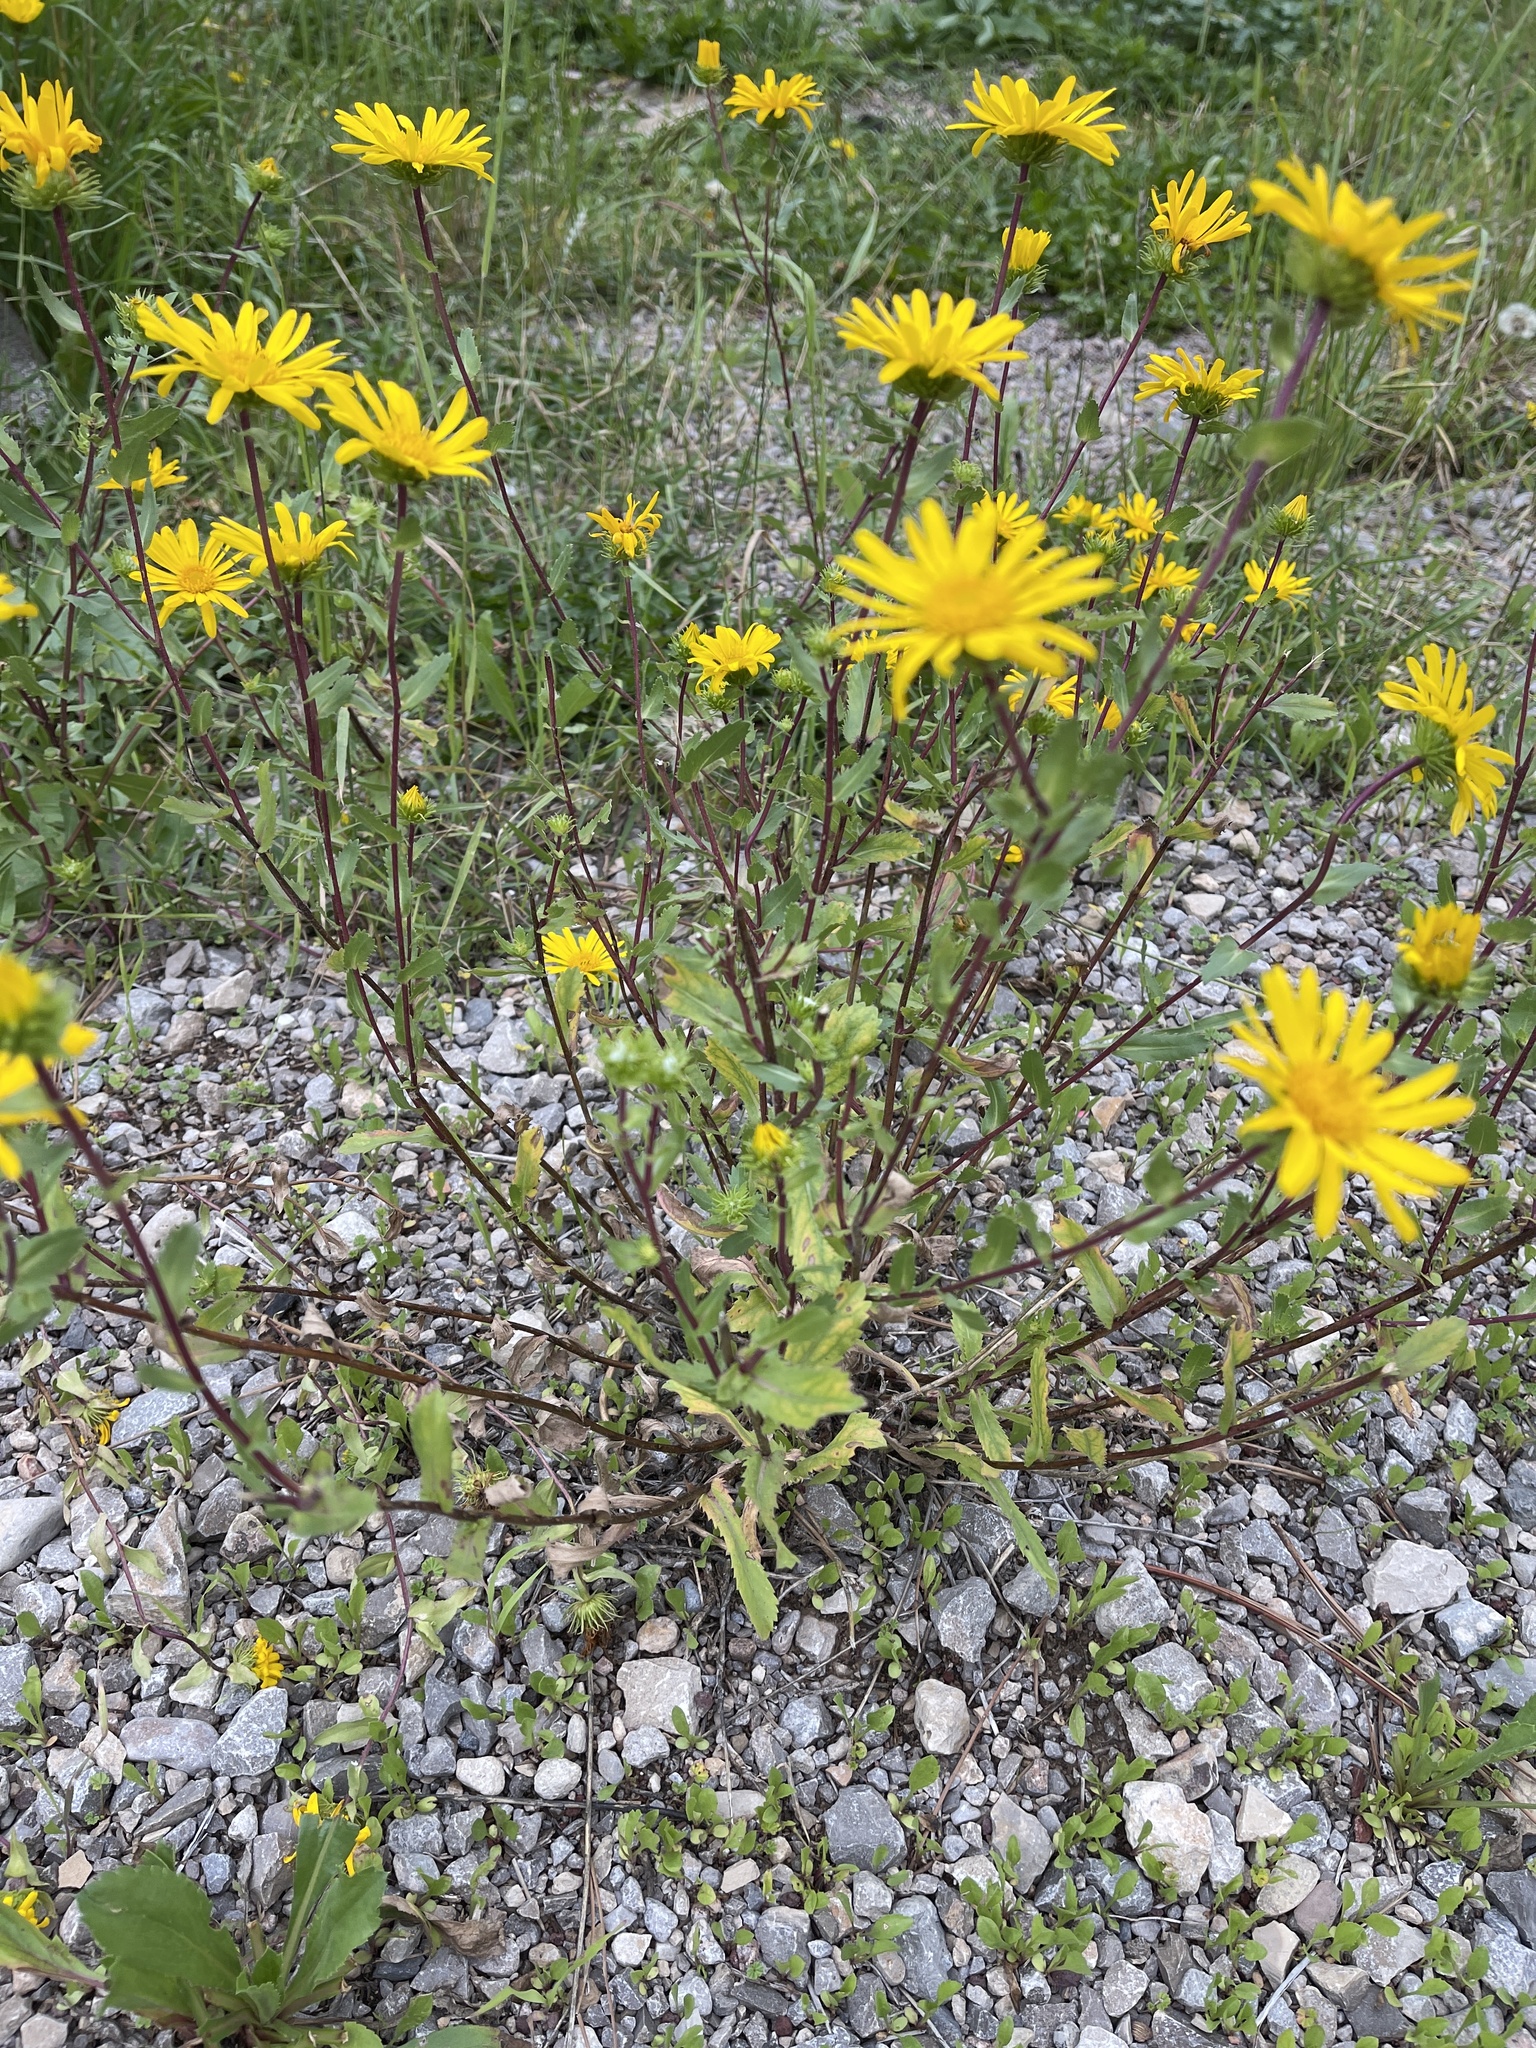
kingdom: Plantae
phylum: Tracheophyta
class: Magnoliopsida
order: Asterales
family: Asteraceae
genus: Grindelia
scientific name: Grindelia scabra
